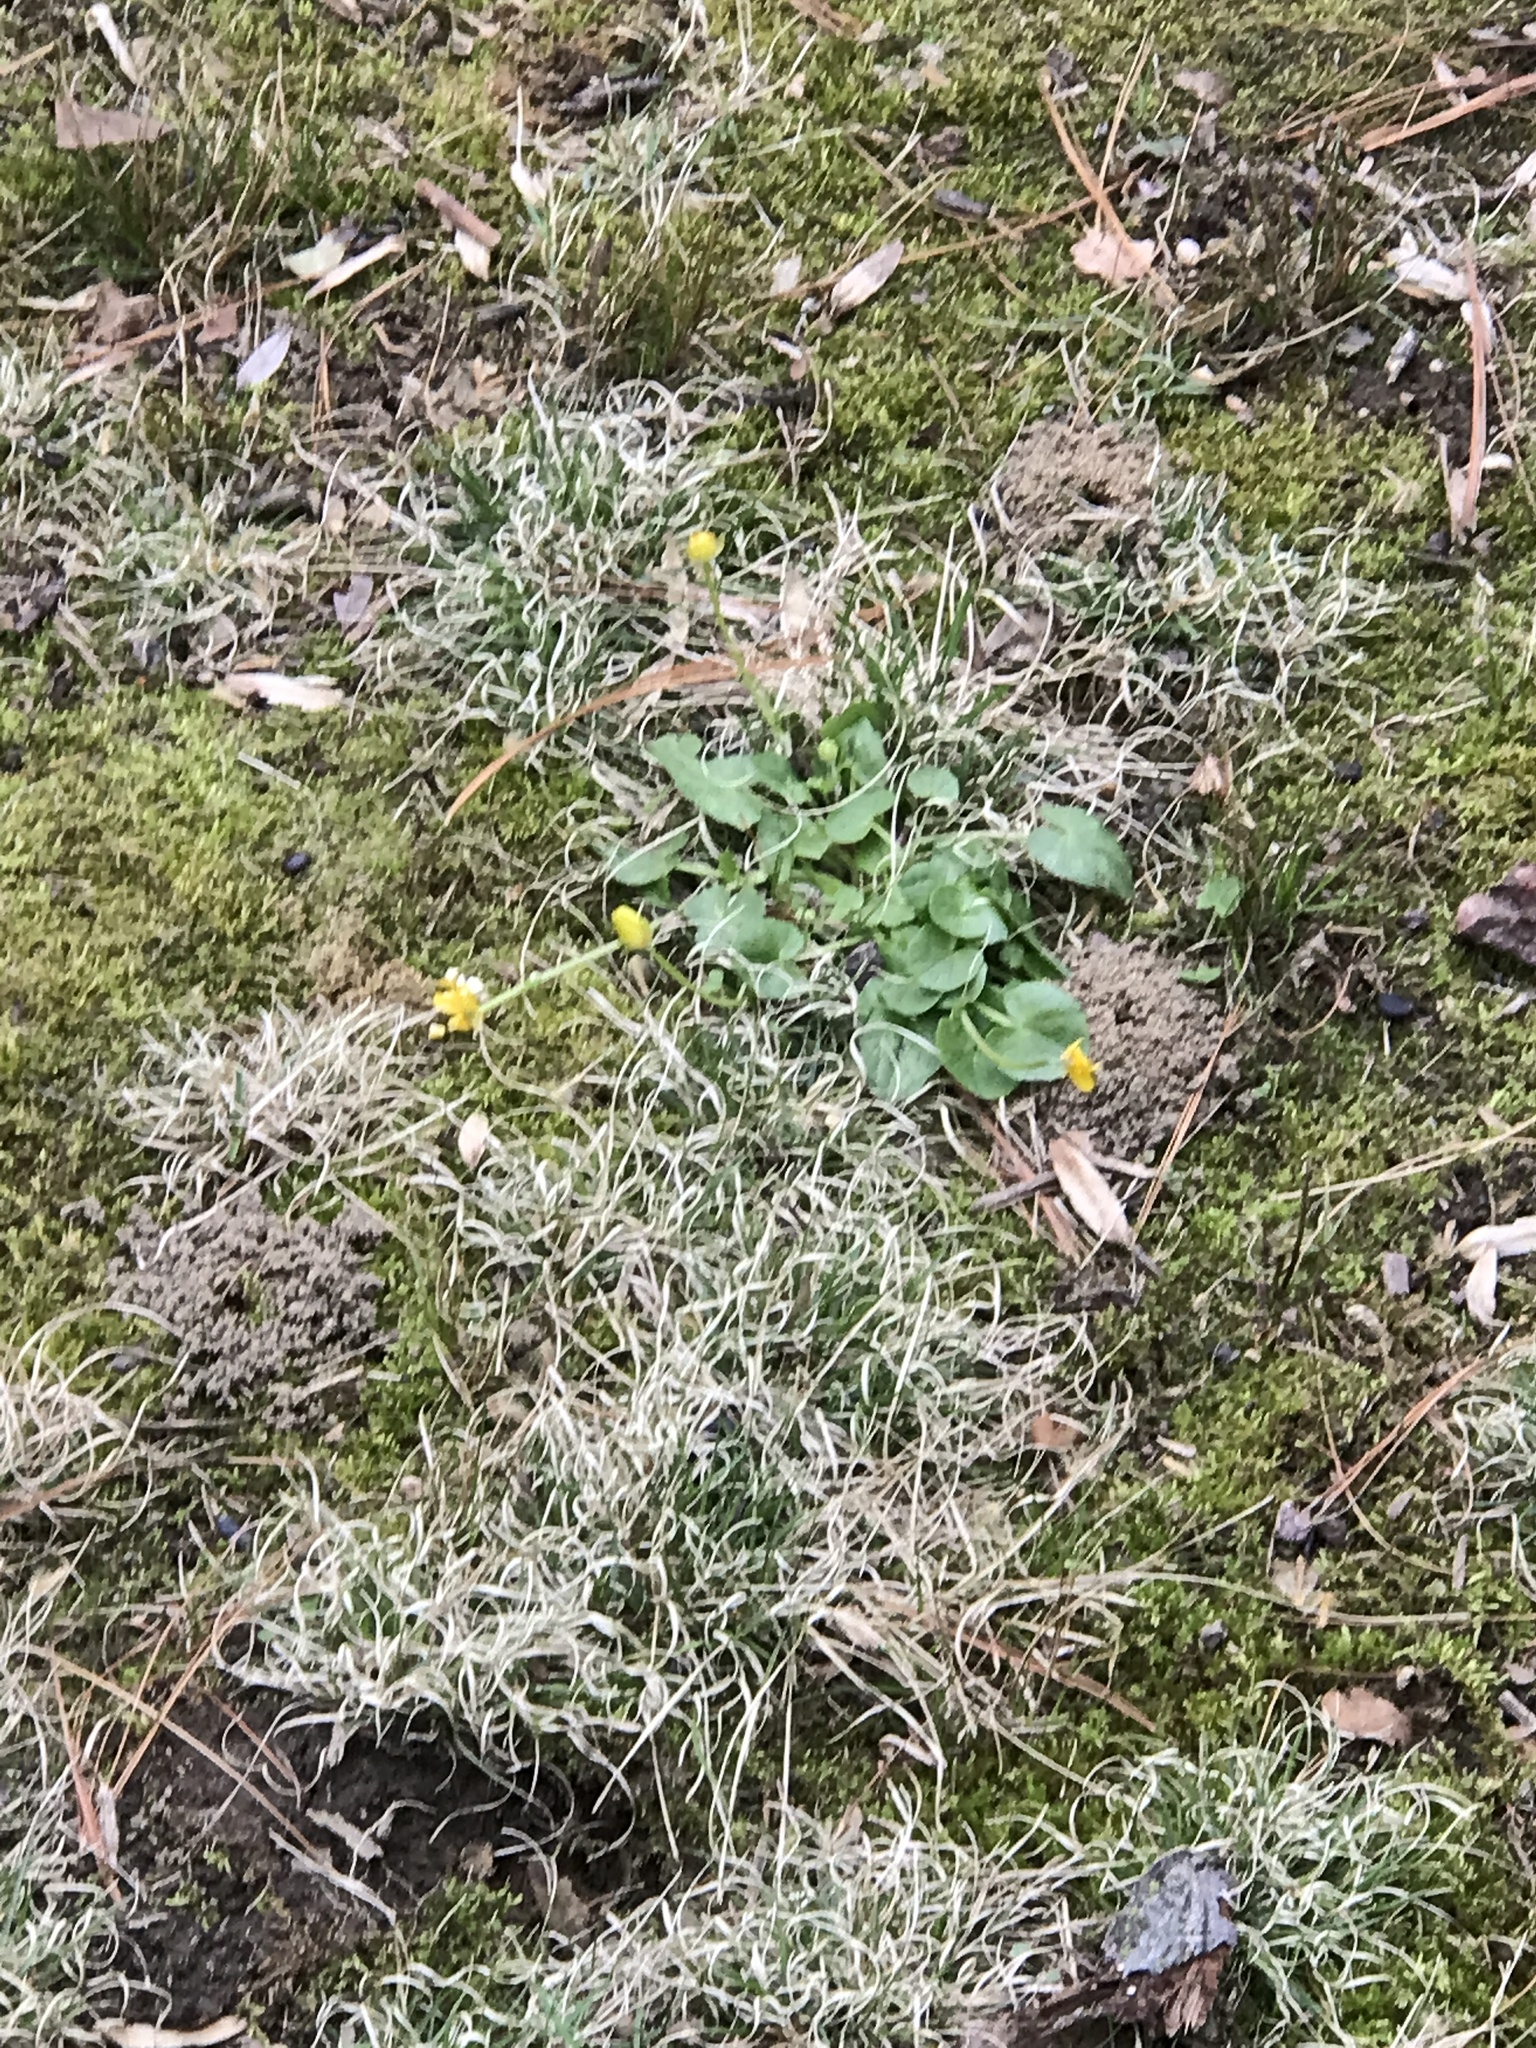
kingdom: Plantae
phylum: Tracheophyta
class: Magnoliopsida
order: Ranunculales
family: Ranunculaceae
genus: Ficaria
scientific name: Ficaria verna
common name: Lesser celandine
